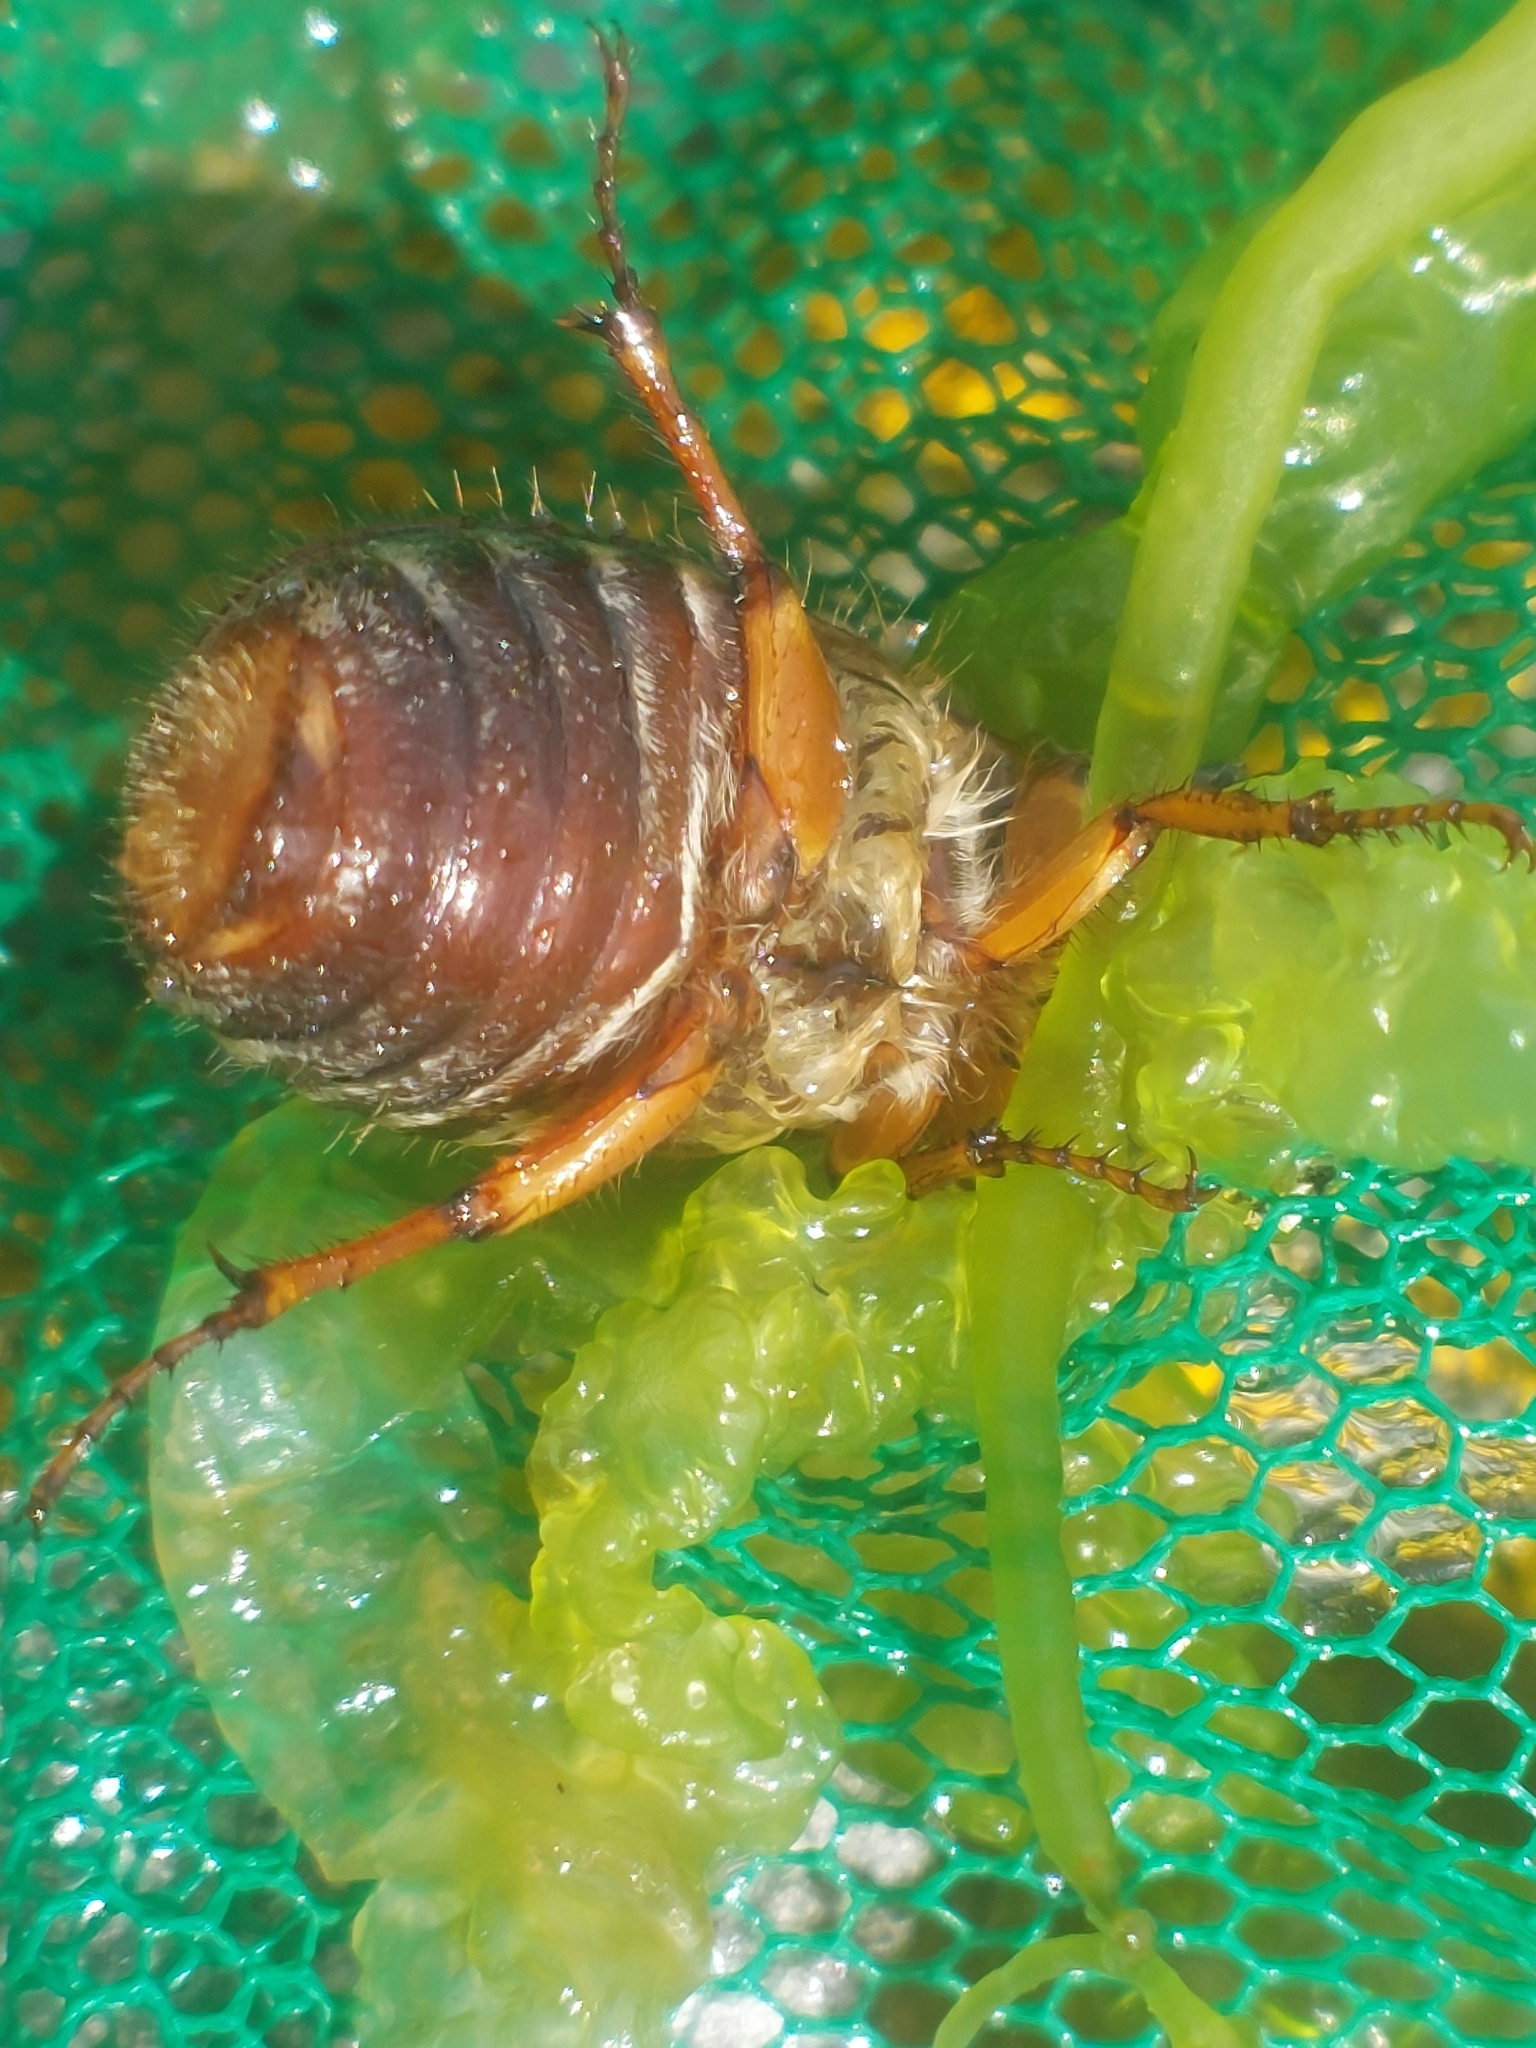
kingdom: Animalia
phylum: Arthropoda
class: Insecta
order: Coleoptera
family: Scarabaeidae
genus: Amphimallon
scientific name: Amphimallon solstitiale
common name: Summer chafer
